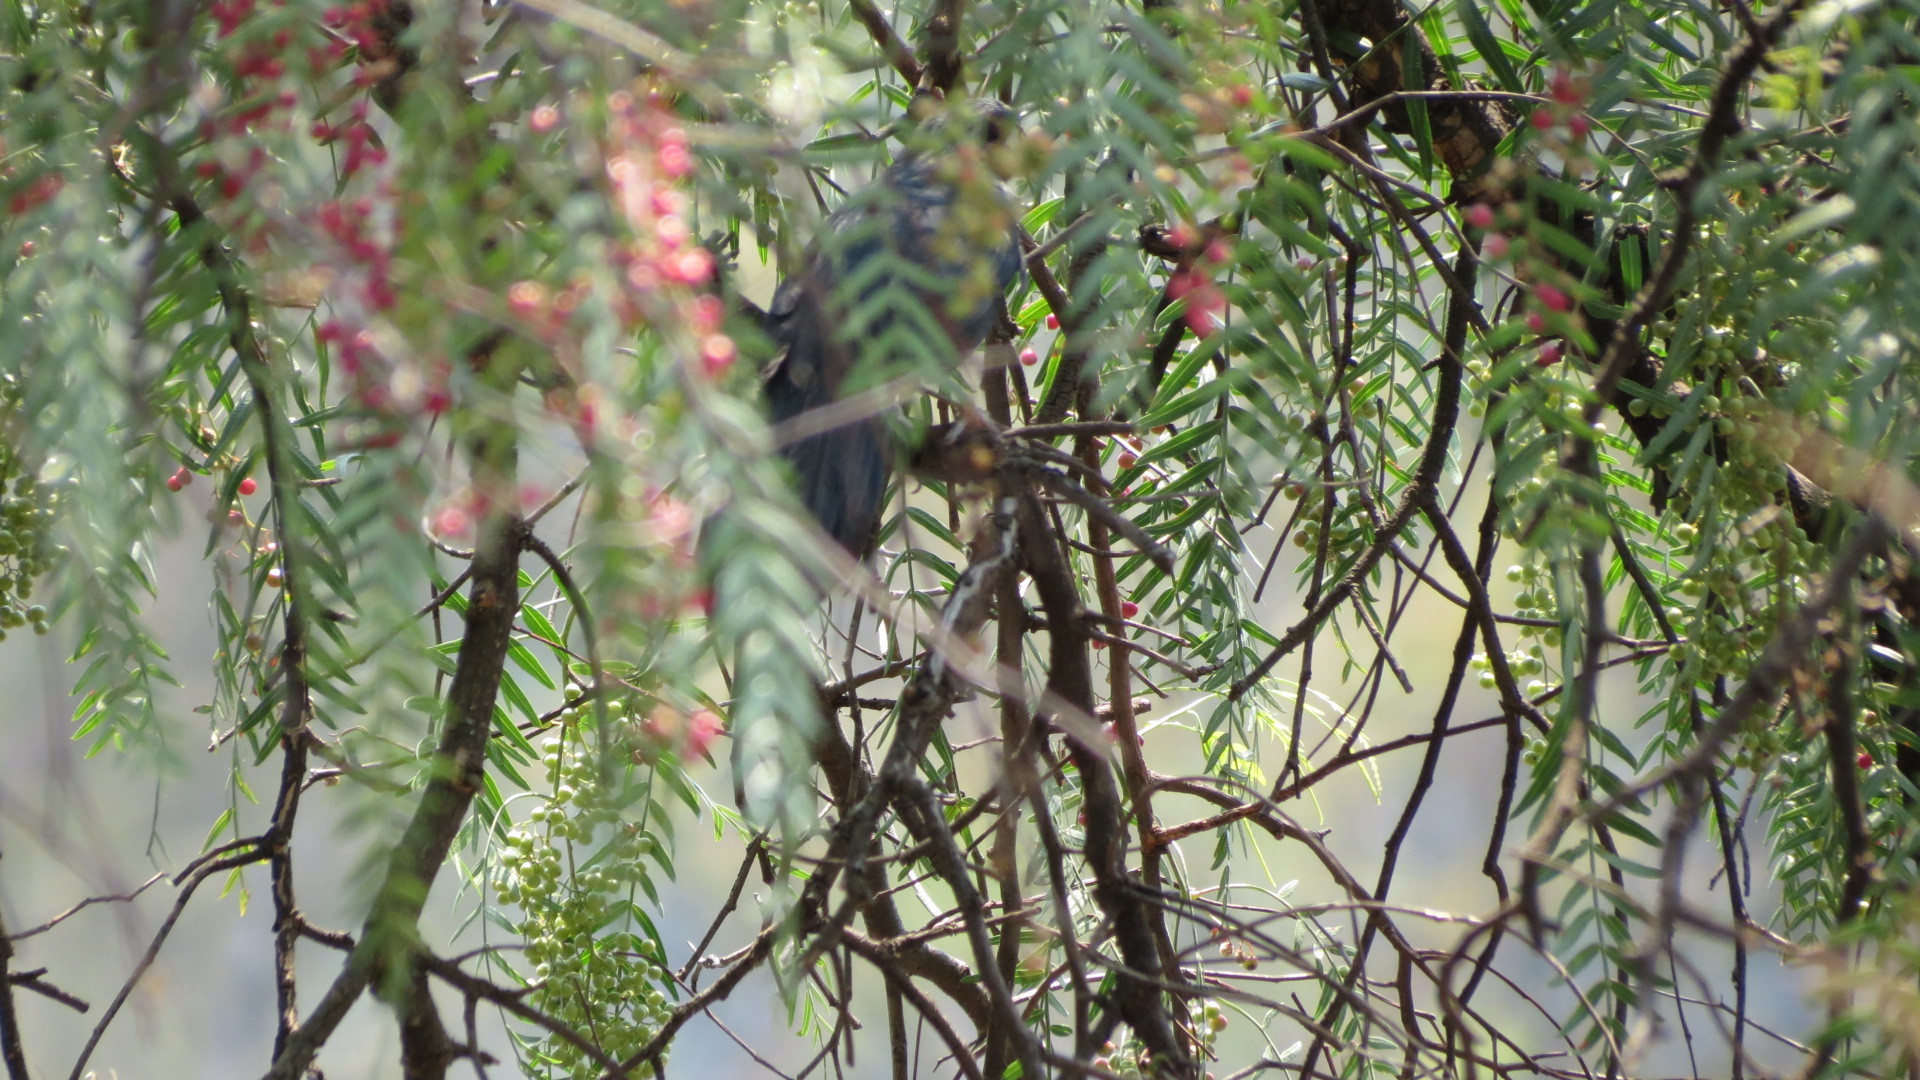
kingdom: Animalia
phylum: Chordata
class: Aves
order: Passeriformes
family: Mimidae
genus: Melanotis
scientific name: Melanotis caerulescens
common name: Blue mockingbird
